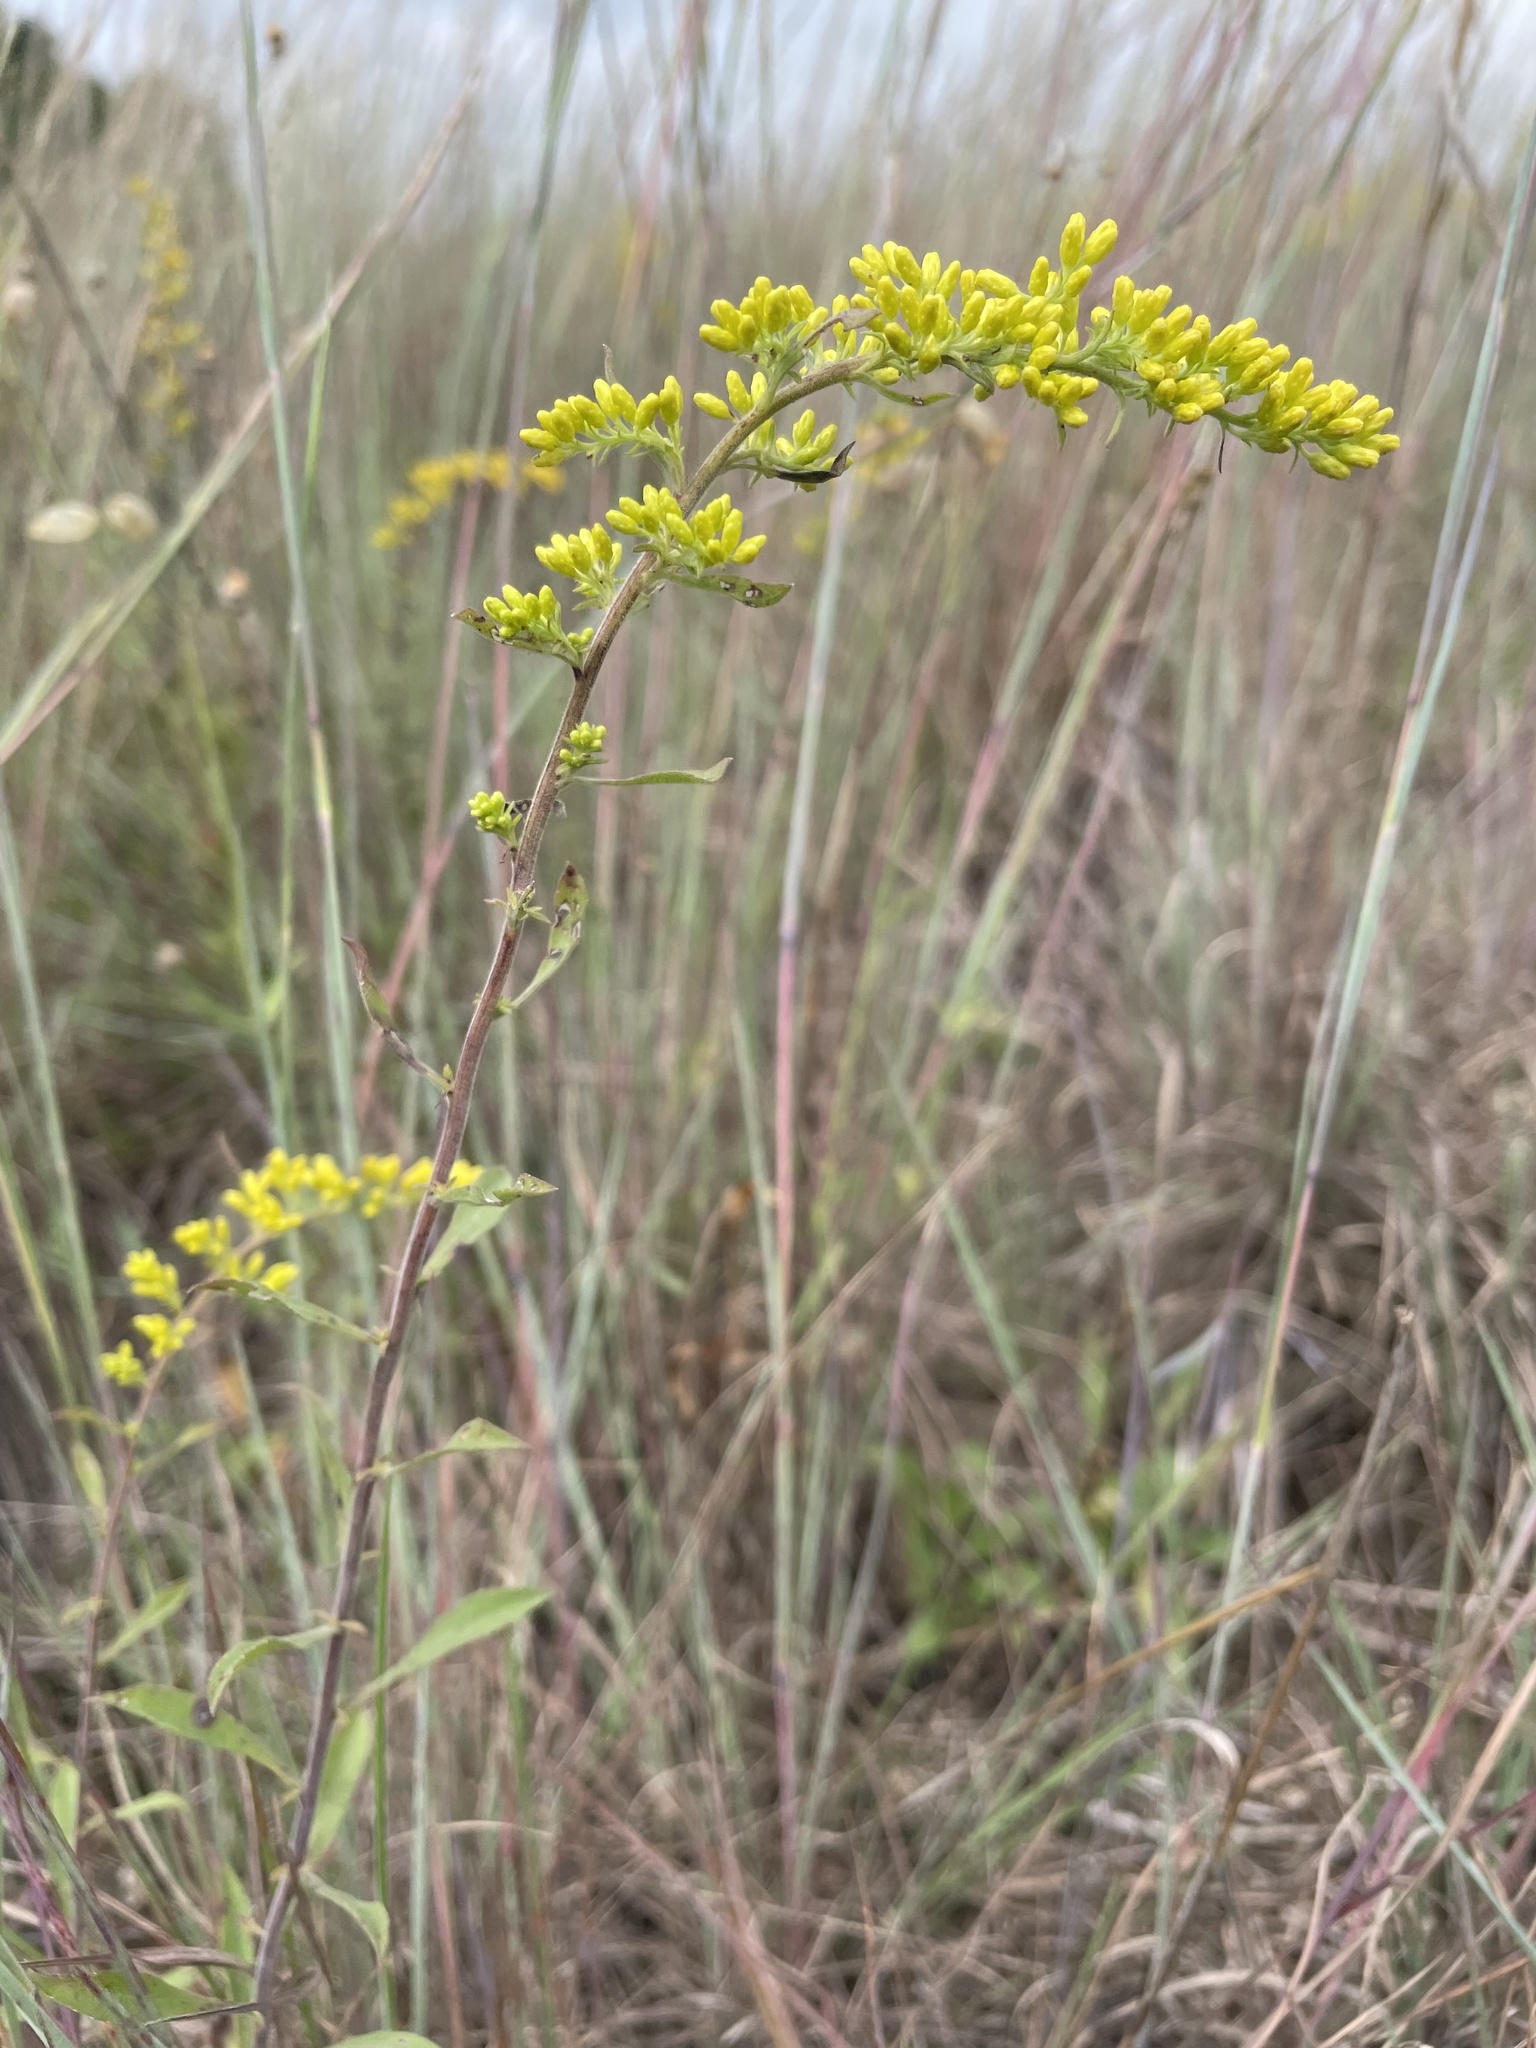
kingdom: Plantae
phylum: Tracheophyta
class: Magnoliopsida
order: Asterales
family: Asteraceae
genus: Solidago
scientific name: Solidago nemoralis
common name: Grey goldenrod
